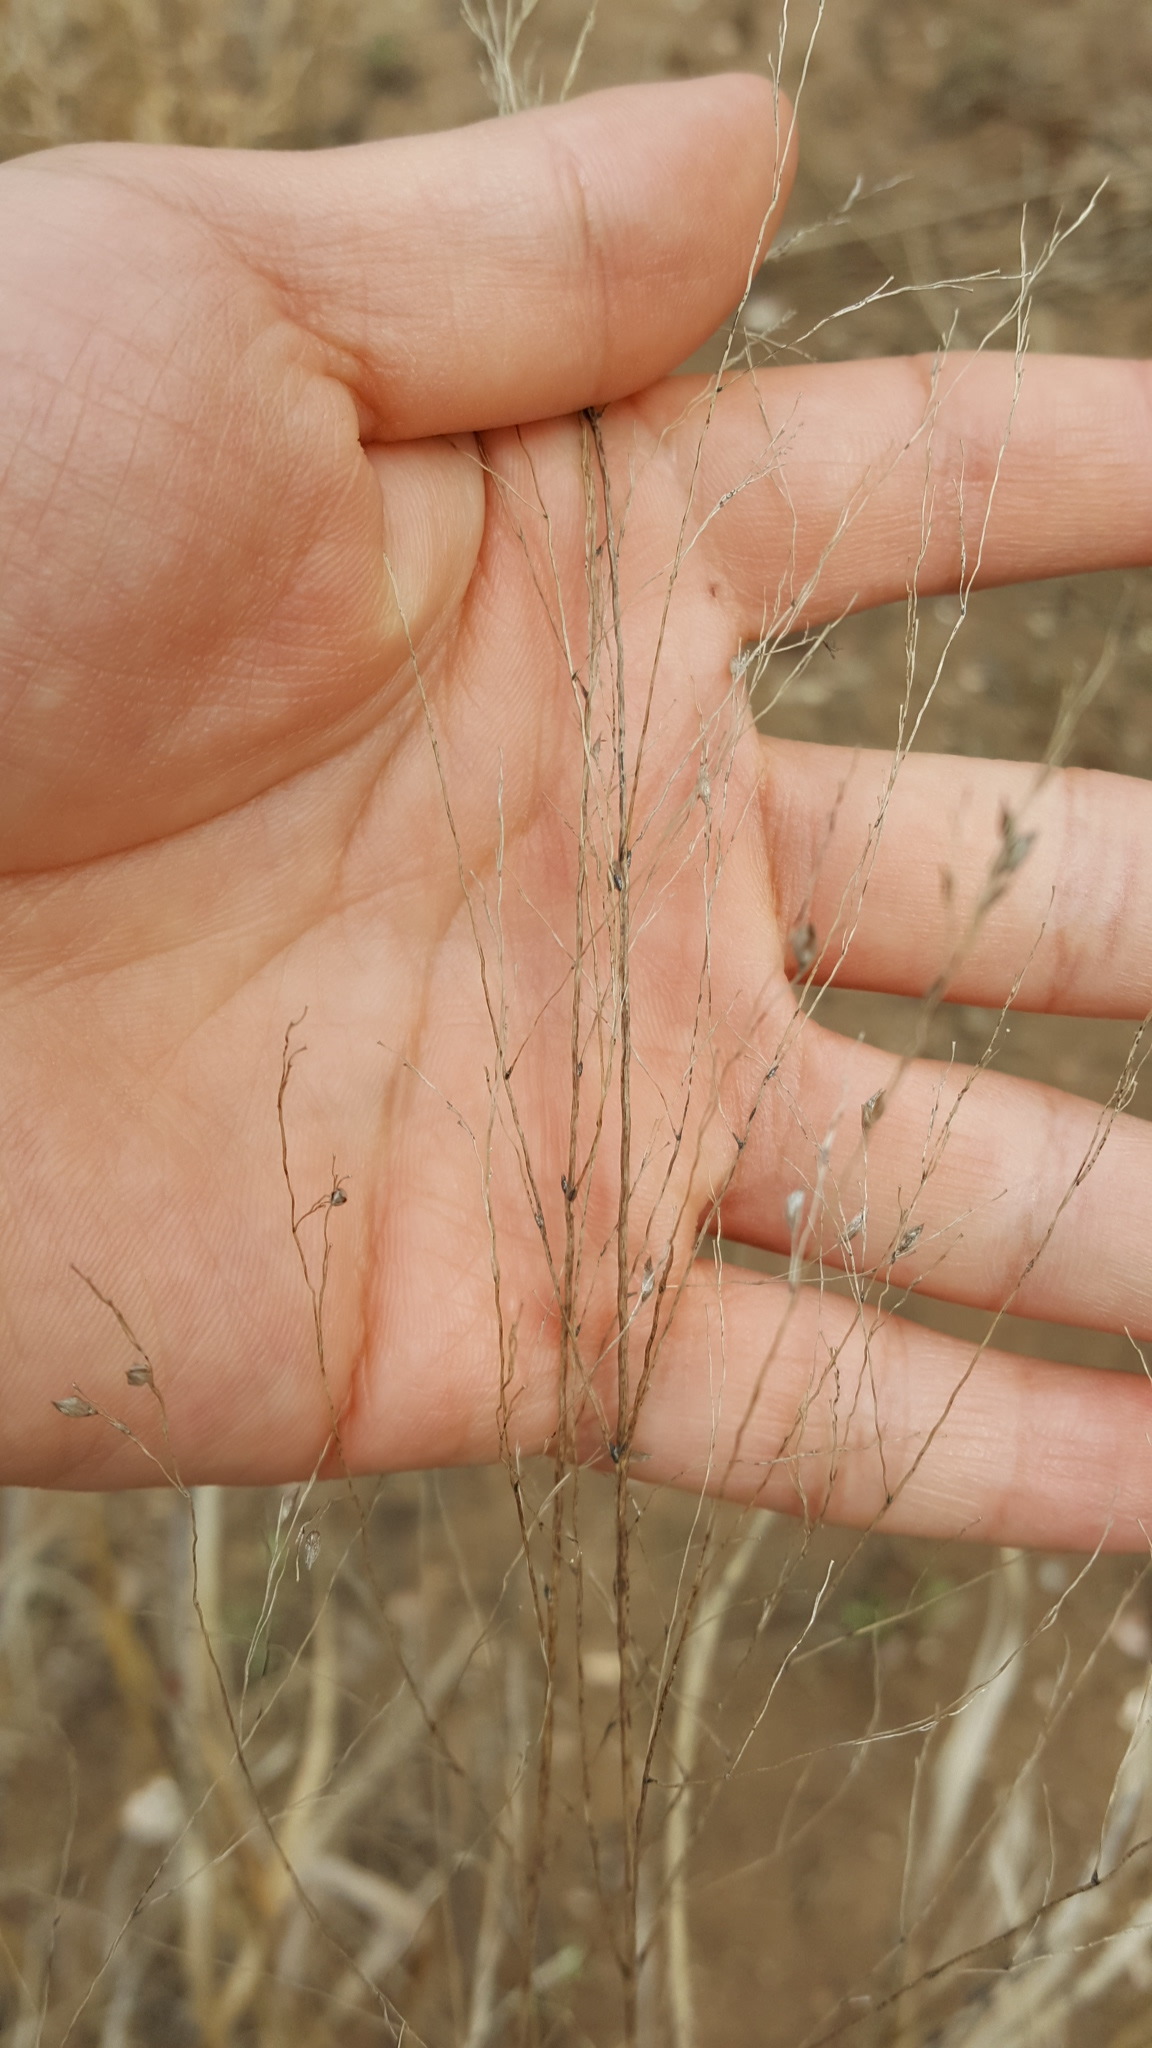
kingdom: Plantae
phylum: Tracheophyta
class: Liliopsida
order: Poales
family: Poaceae
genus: Panicum
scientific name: Panicum virgatum
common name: Switchgrass
